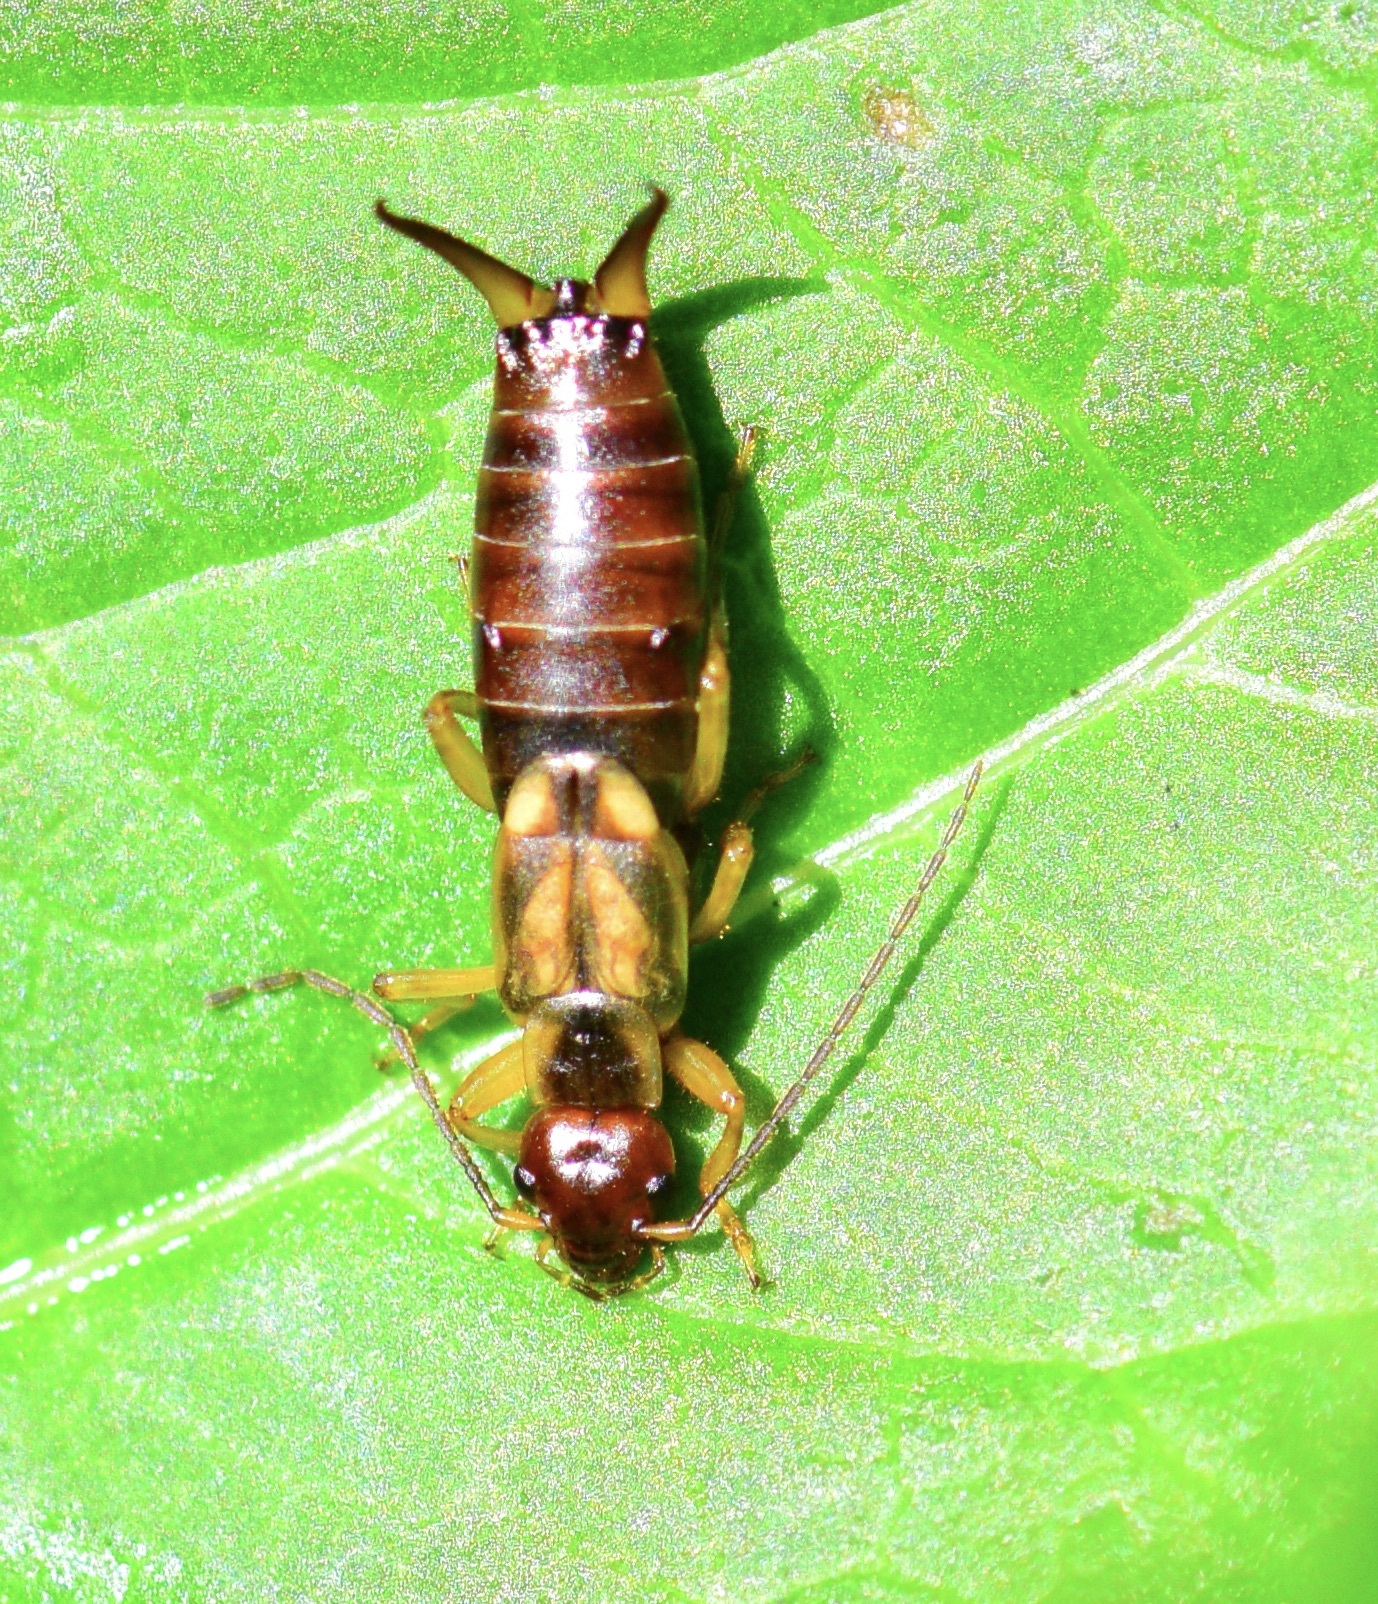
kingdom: Animalia
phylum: Arthropoda
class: Insecta
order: Dermaptera
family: Forficulidae
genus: Forficula
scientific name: Forficula
